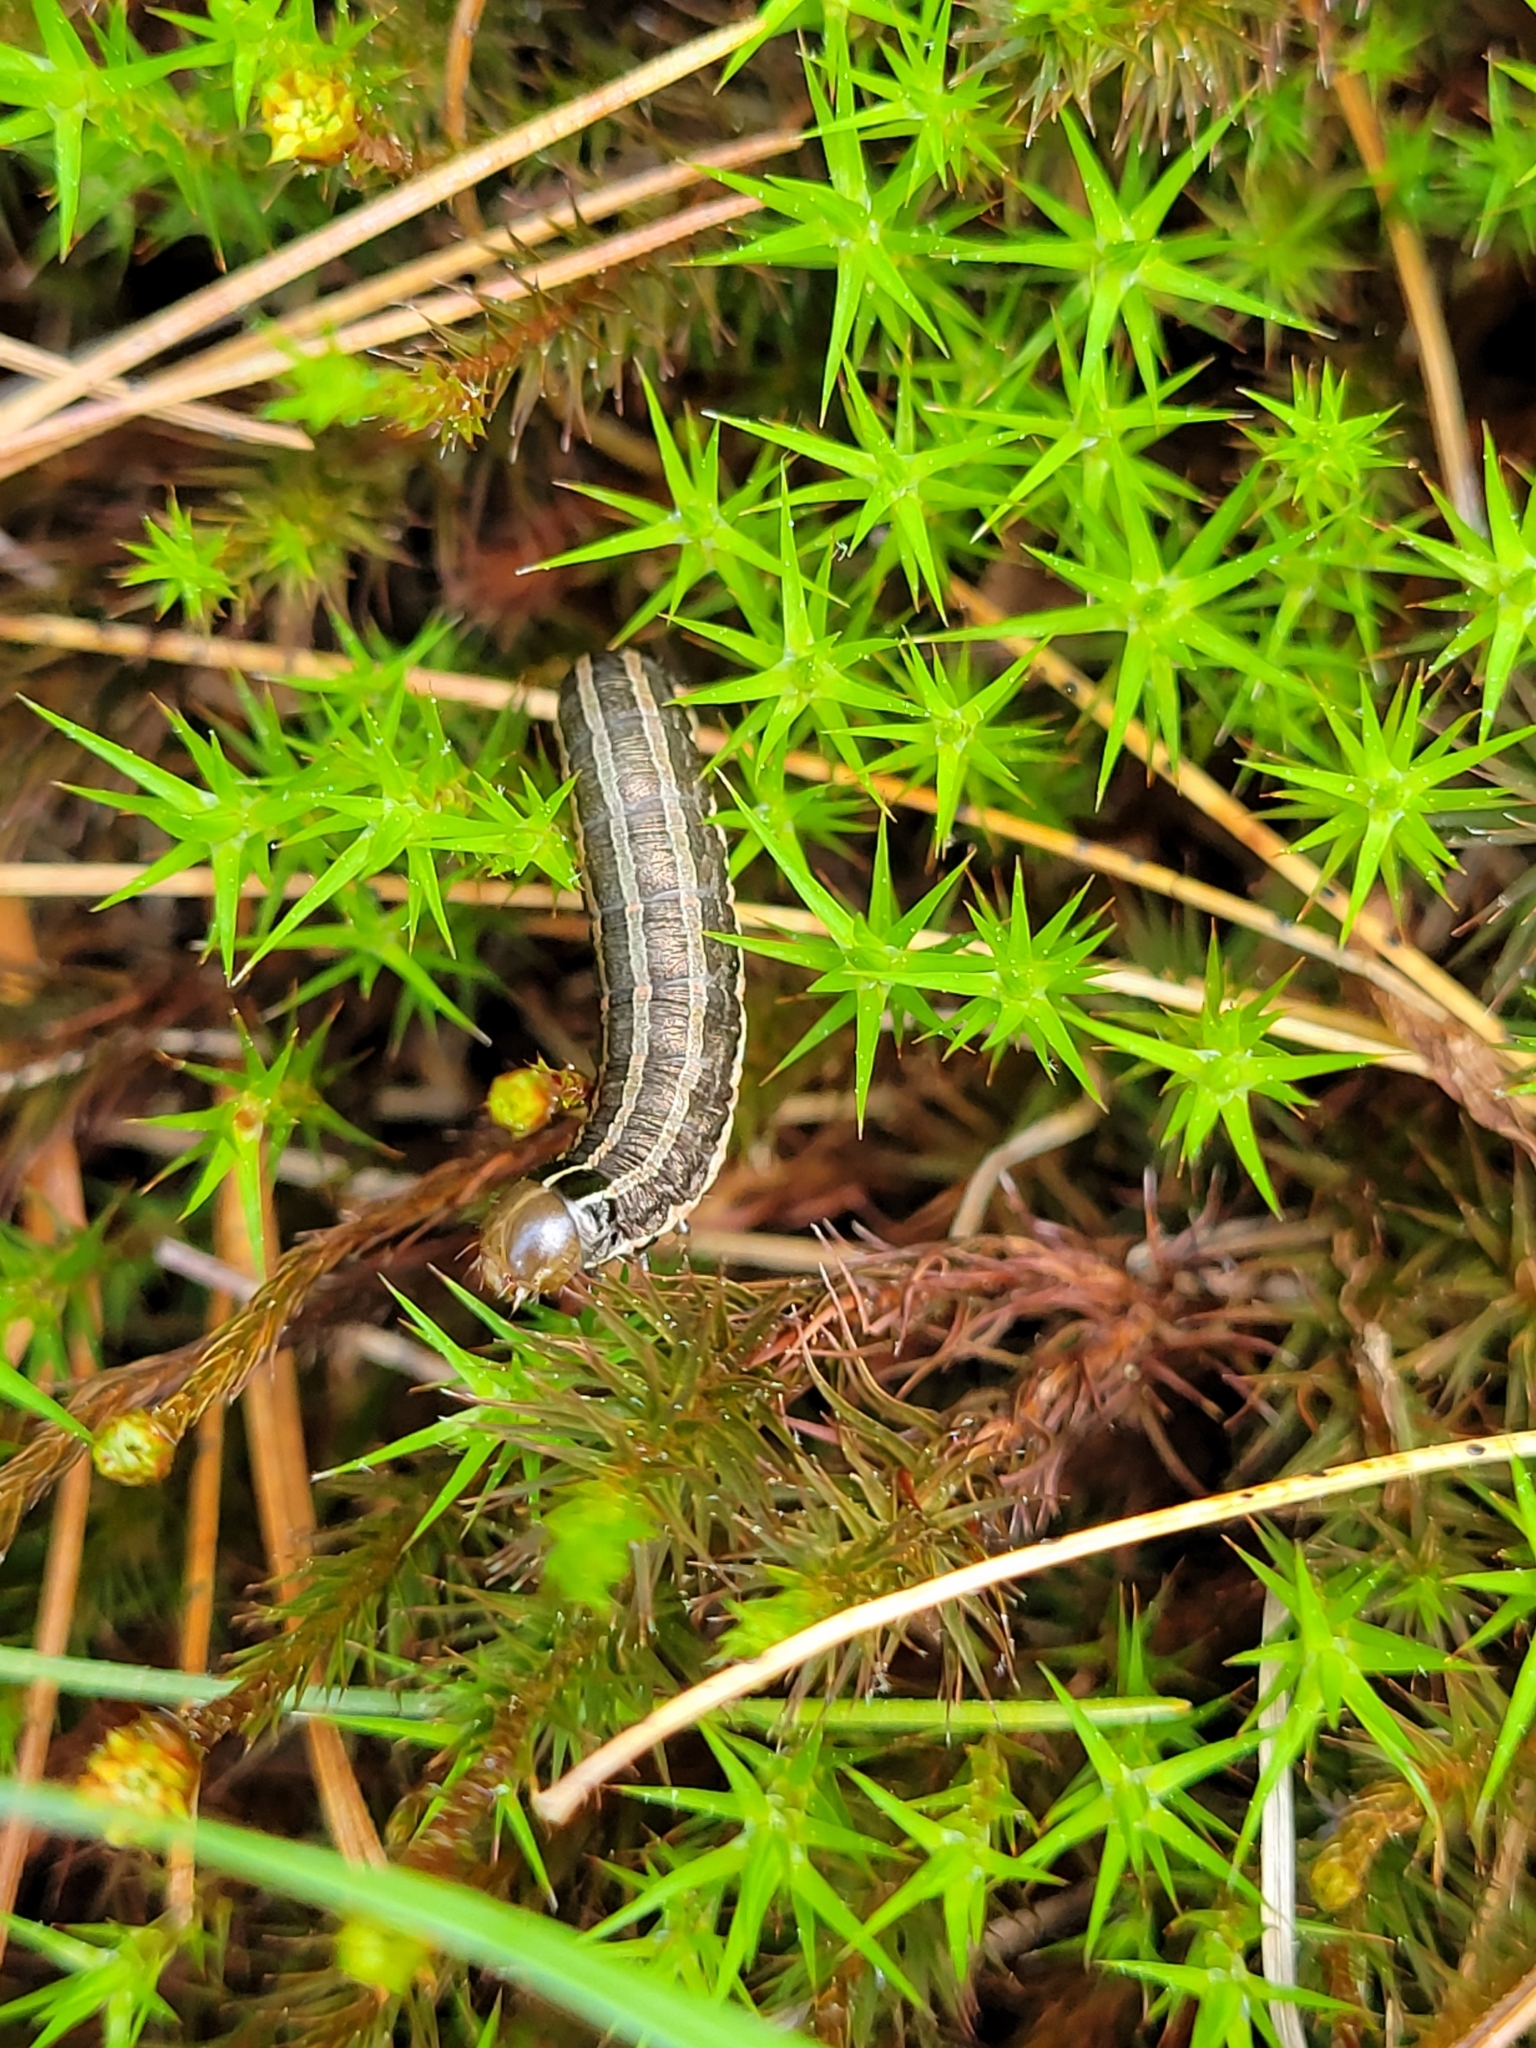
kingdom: Animalia
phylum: Arthropoda
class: Insecta
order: Lepidoptera
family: Noctuidae
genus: Nephelodes
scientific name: Nephelodes minians
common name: Bronzed cutworm
